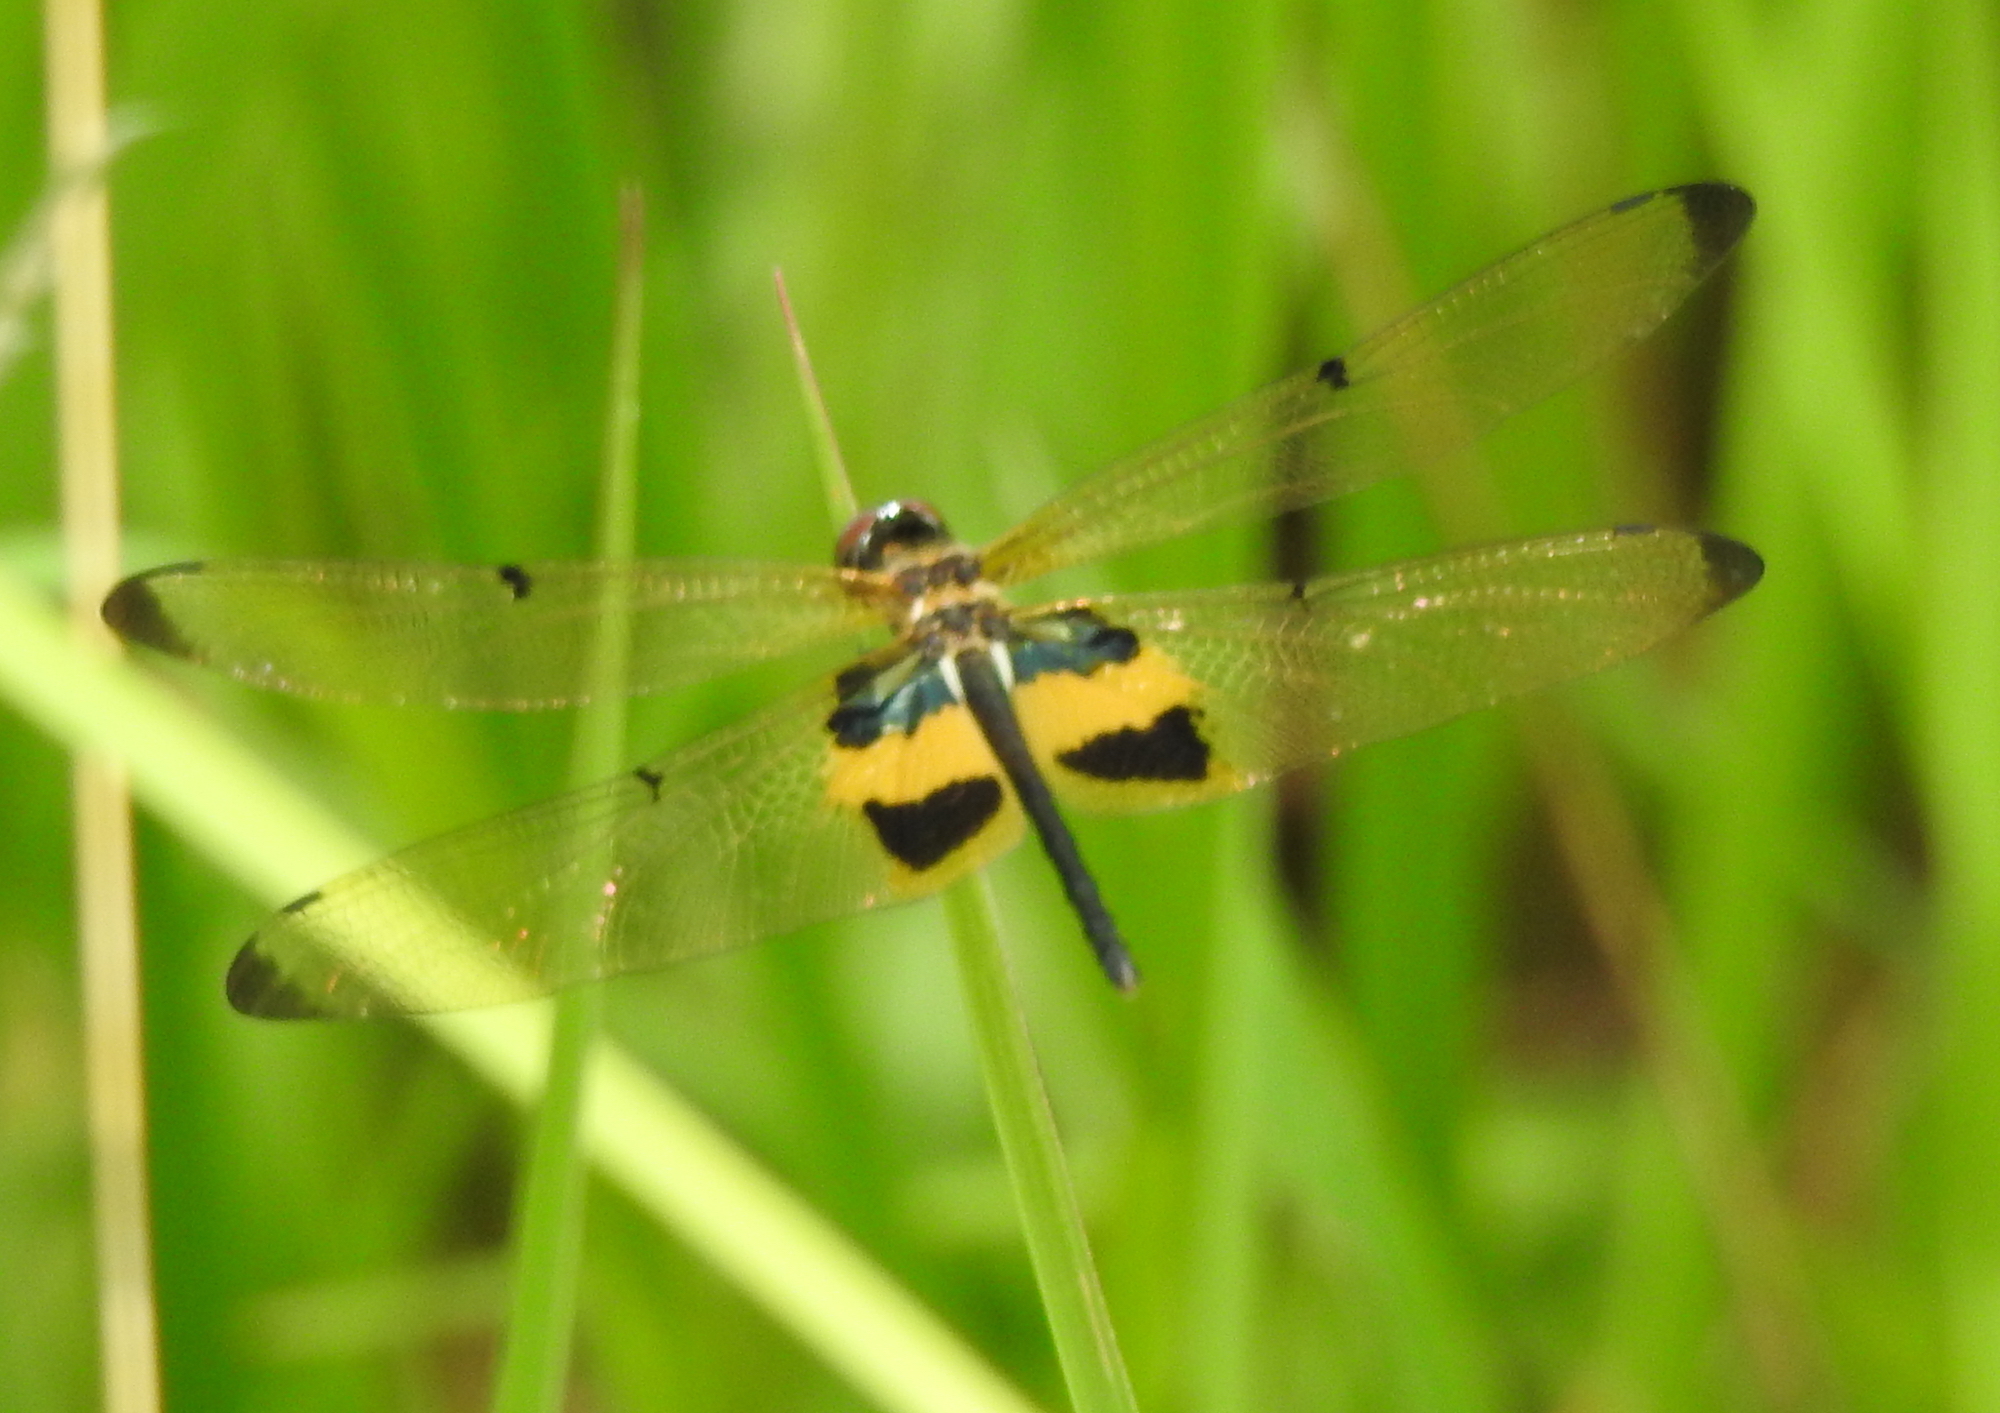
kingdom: Animalia
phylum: Arthropoda
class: Insecta
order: Odonata
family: Libellulidae
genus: Rhyothemis
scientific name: Rhyothemis phyllis
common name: Yellow-barred flutterer
